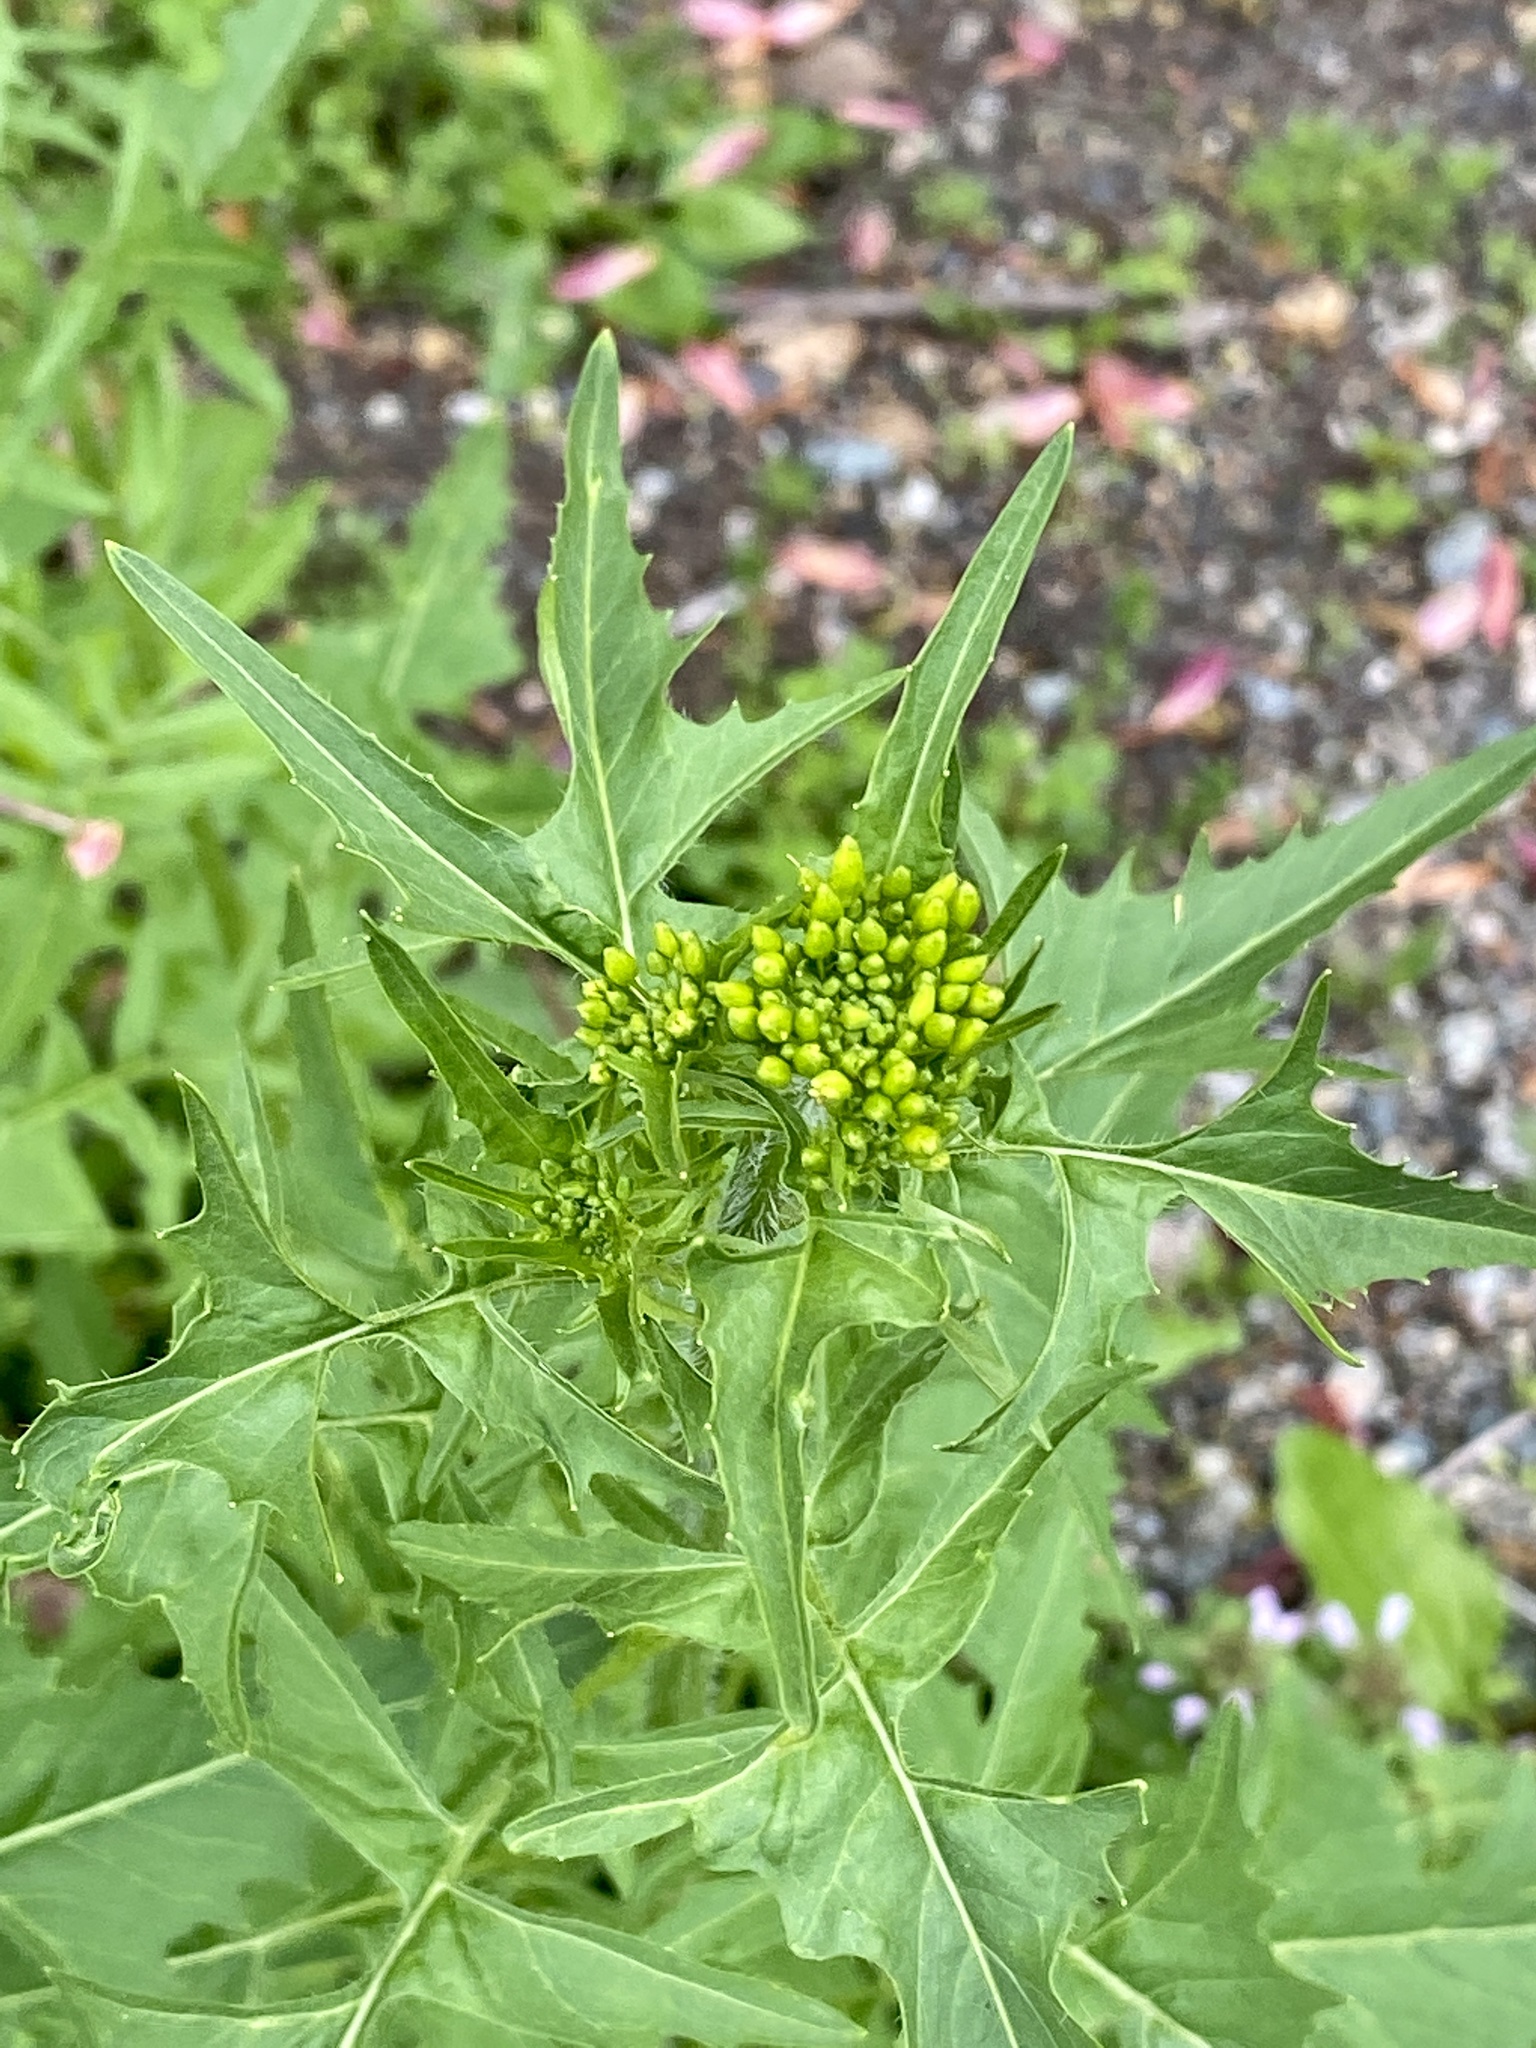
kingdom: Plantae
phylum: Tracheophyta
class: Magnoliopsida
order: Brassicales
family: Brassicaceae
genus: Sisymbrium
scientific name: Sisymbrium officinale
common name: Hedge mustard
